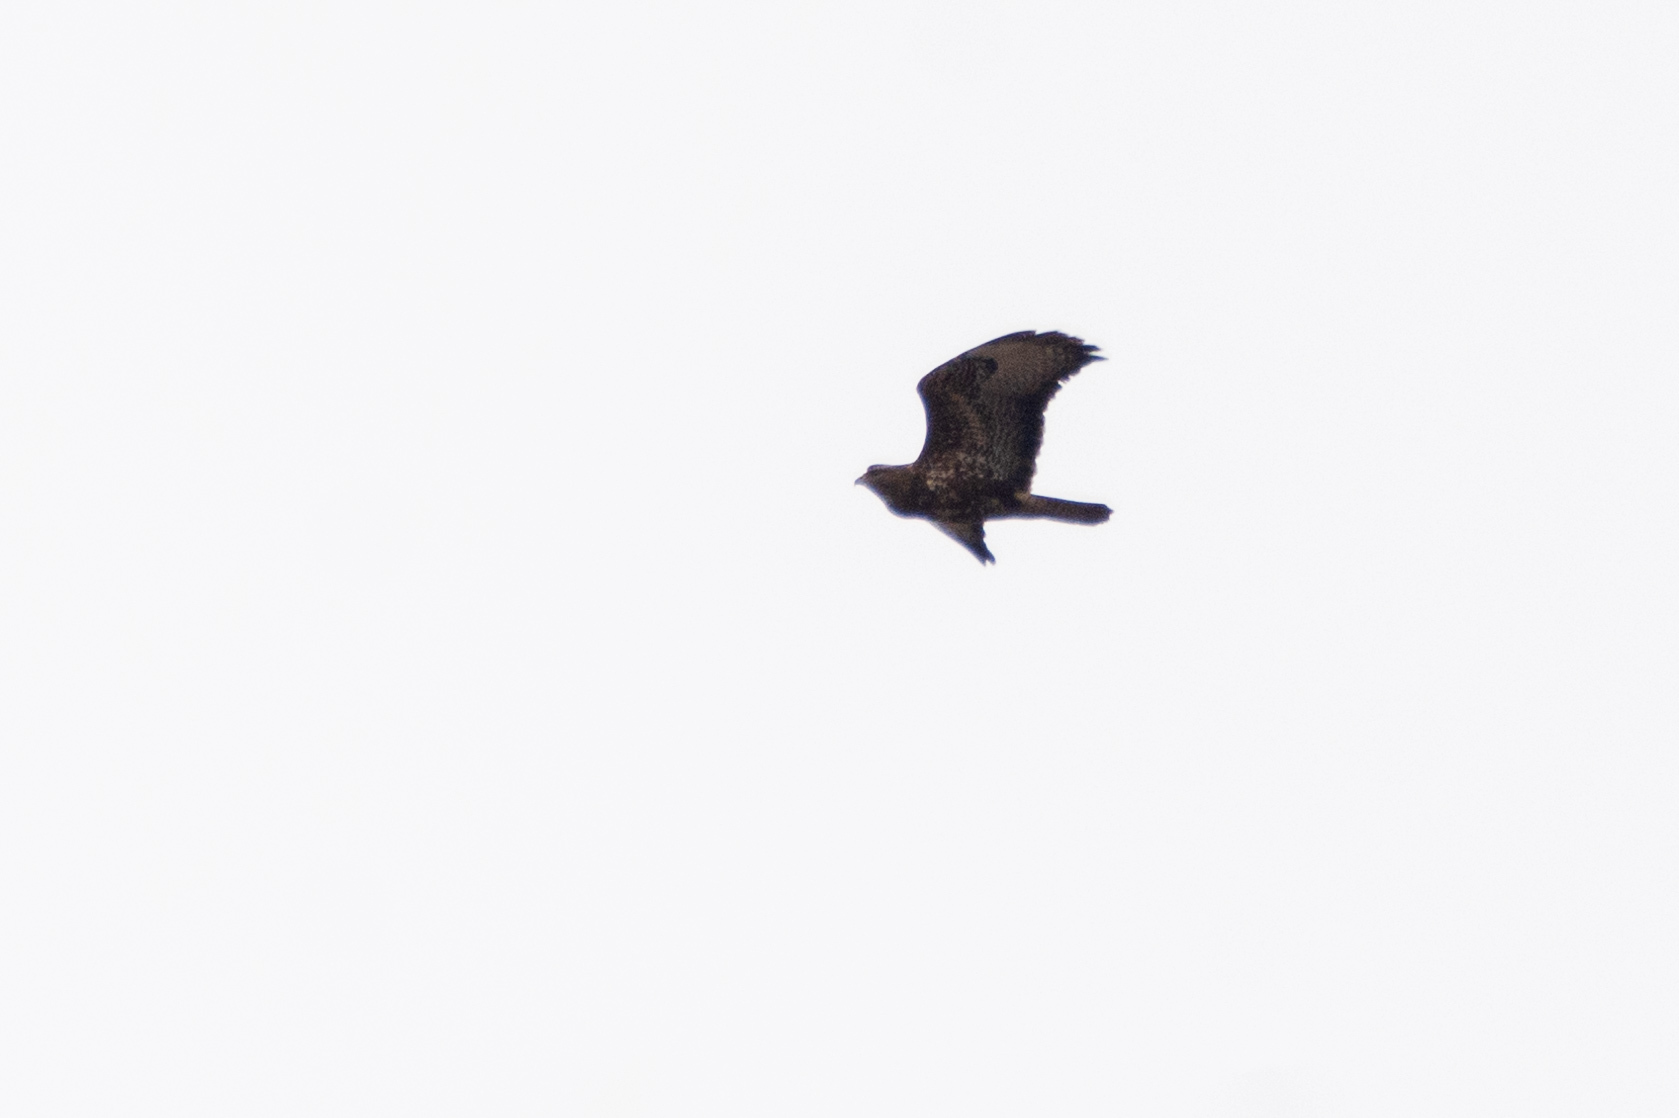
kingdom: Animalia
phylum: Chordata
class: Aves
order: Accipitriformes
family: Accipitridae
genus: Buteo
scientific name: Buteo buteo
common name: Common buzzard
